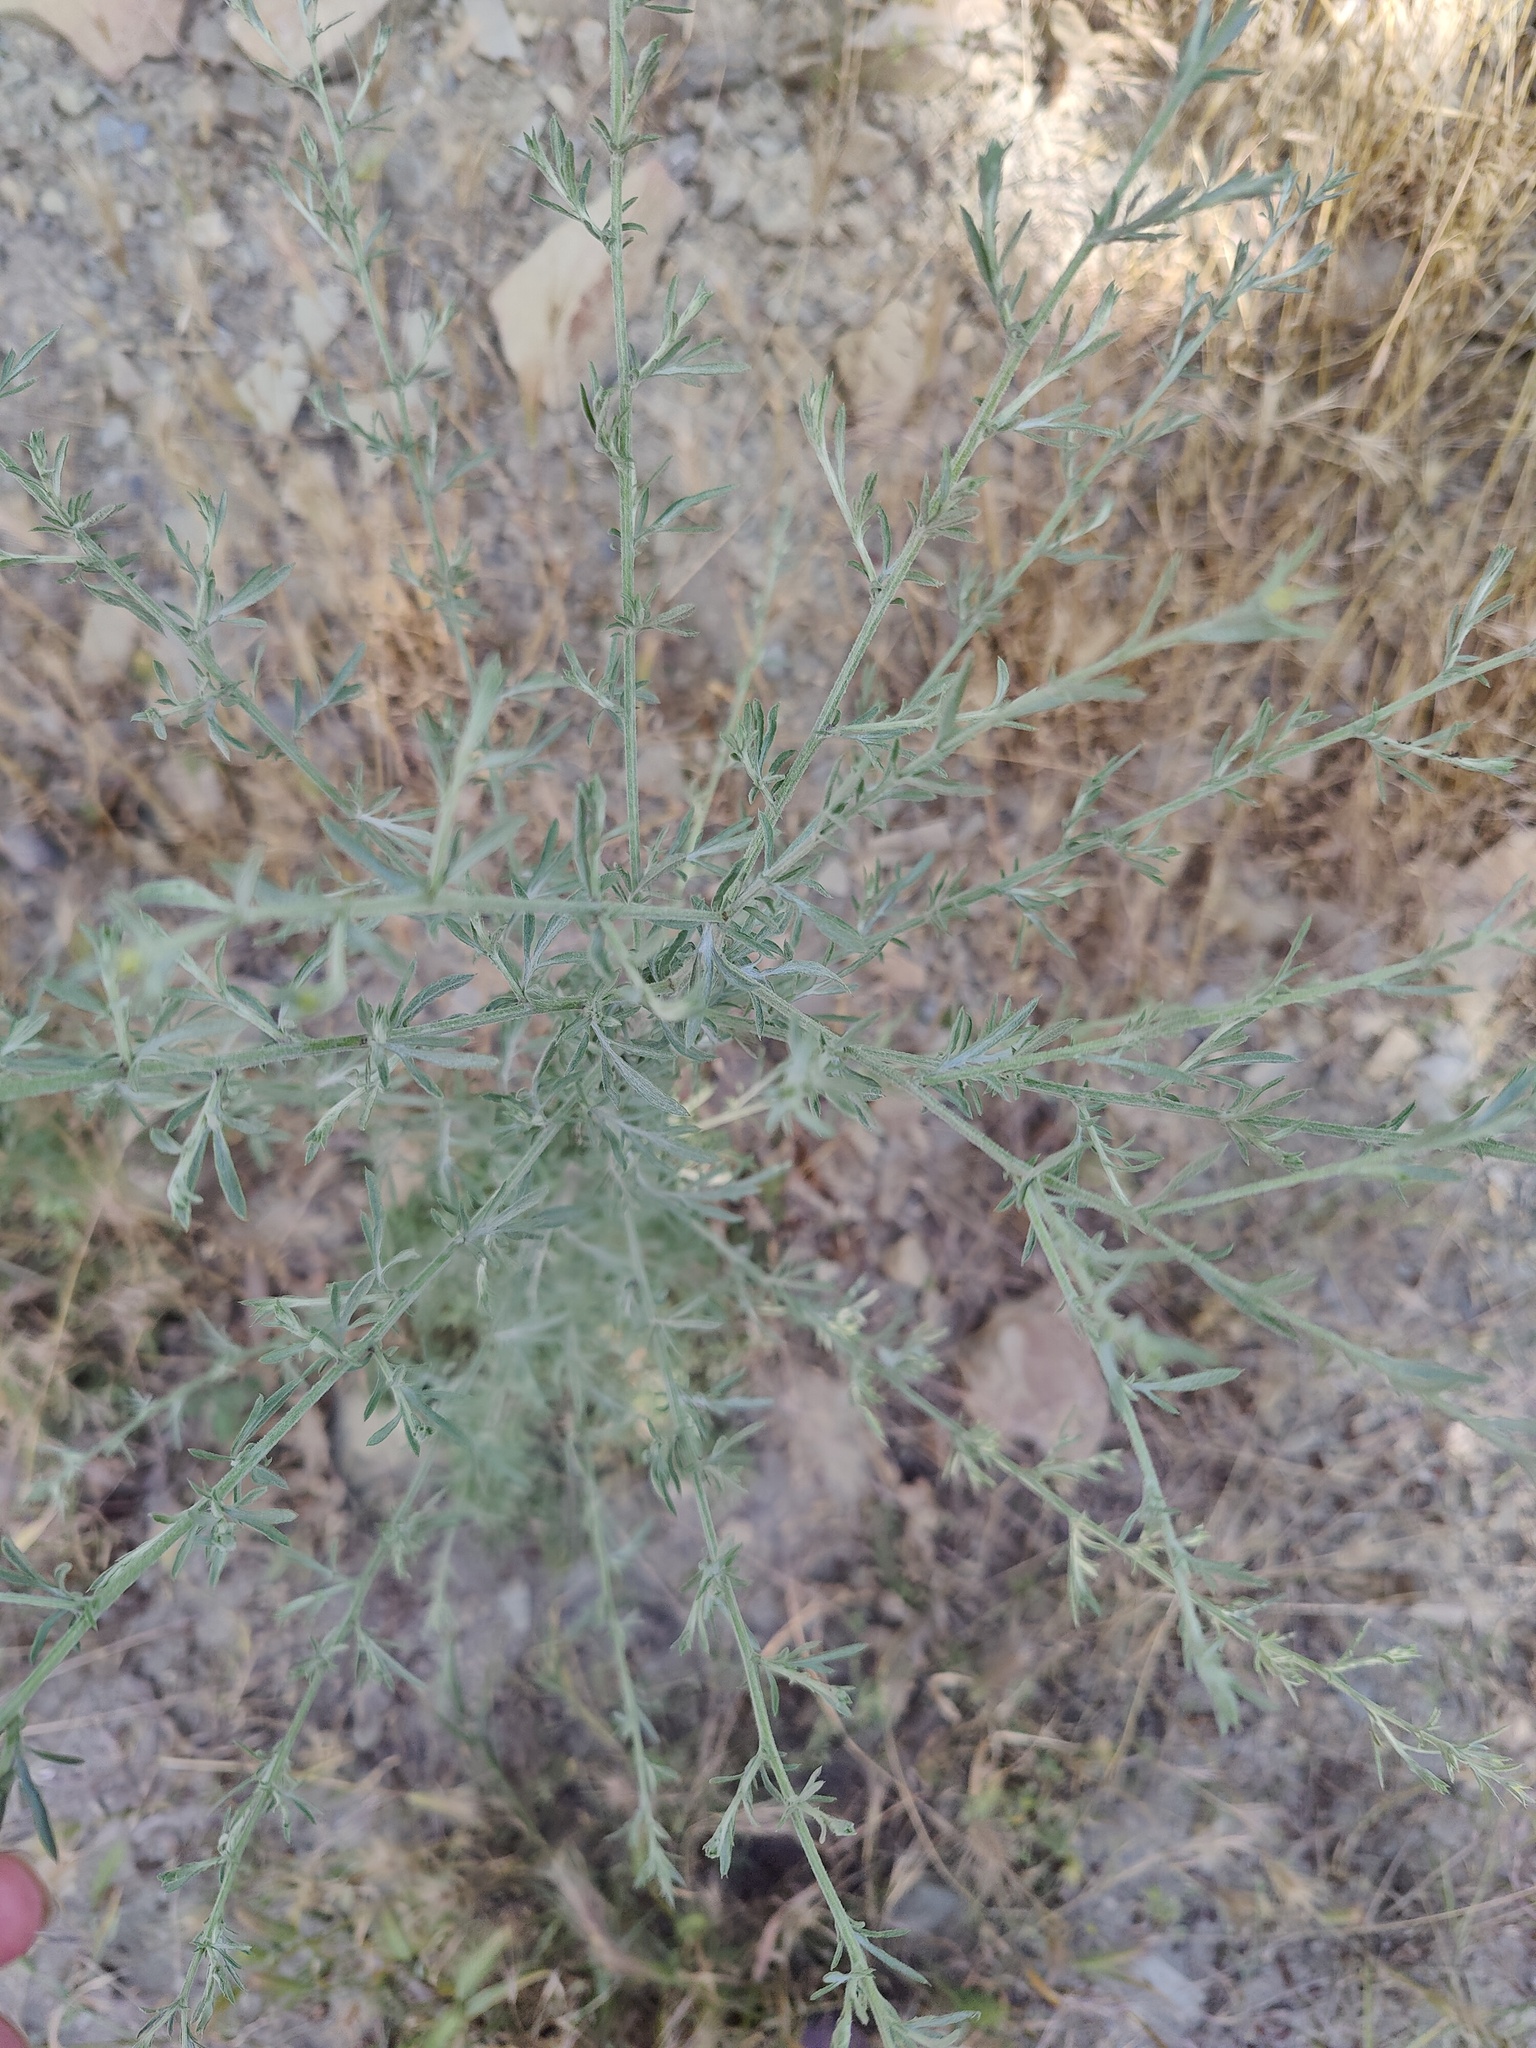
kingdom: Plantae
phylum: Tracheophyta
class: Magnoliopsida
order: Asterales
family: Asteraceae
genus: Centaurea
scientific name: Centaurea diffusa
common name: Diffuse knapweed
